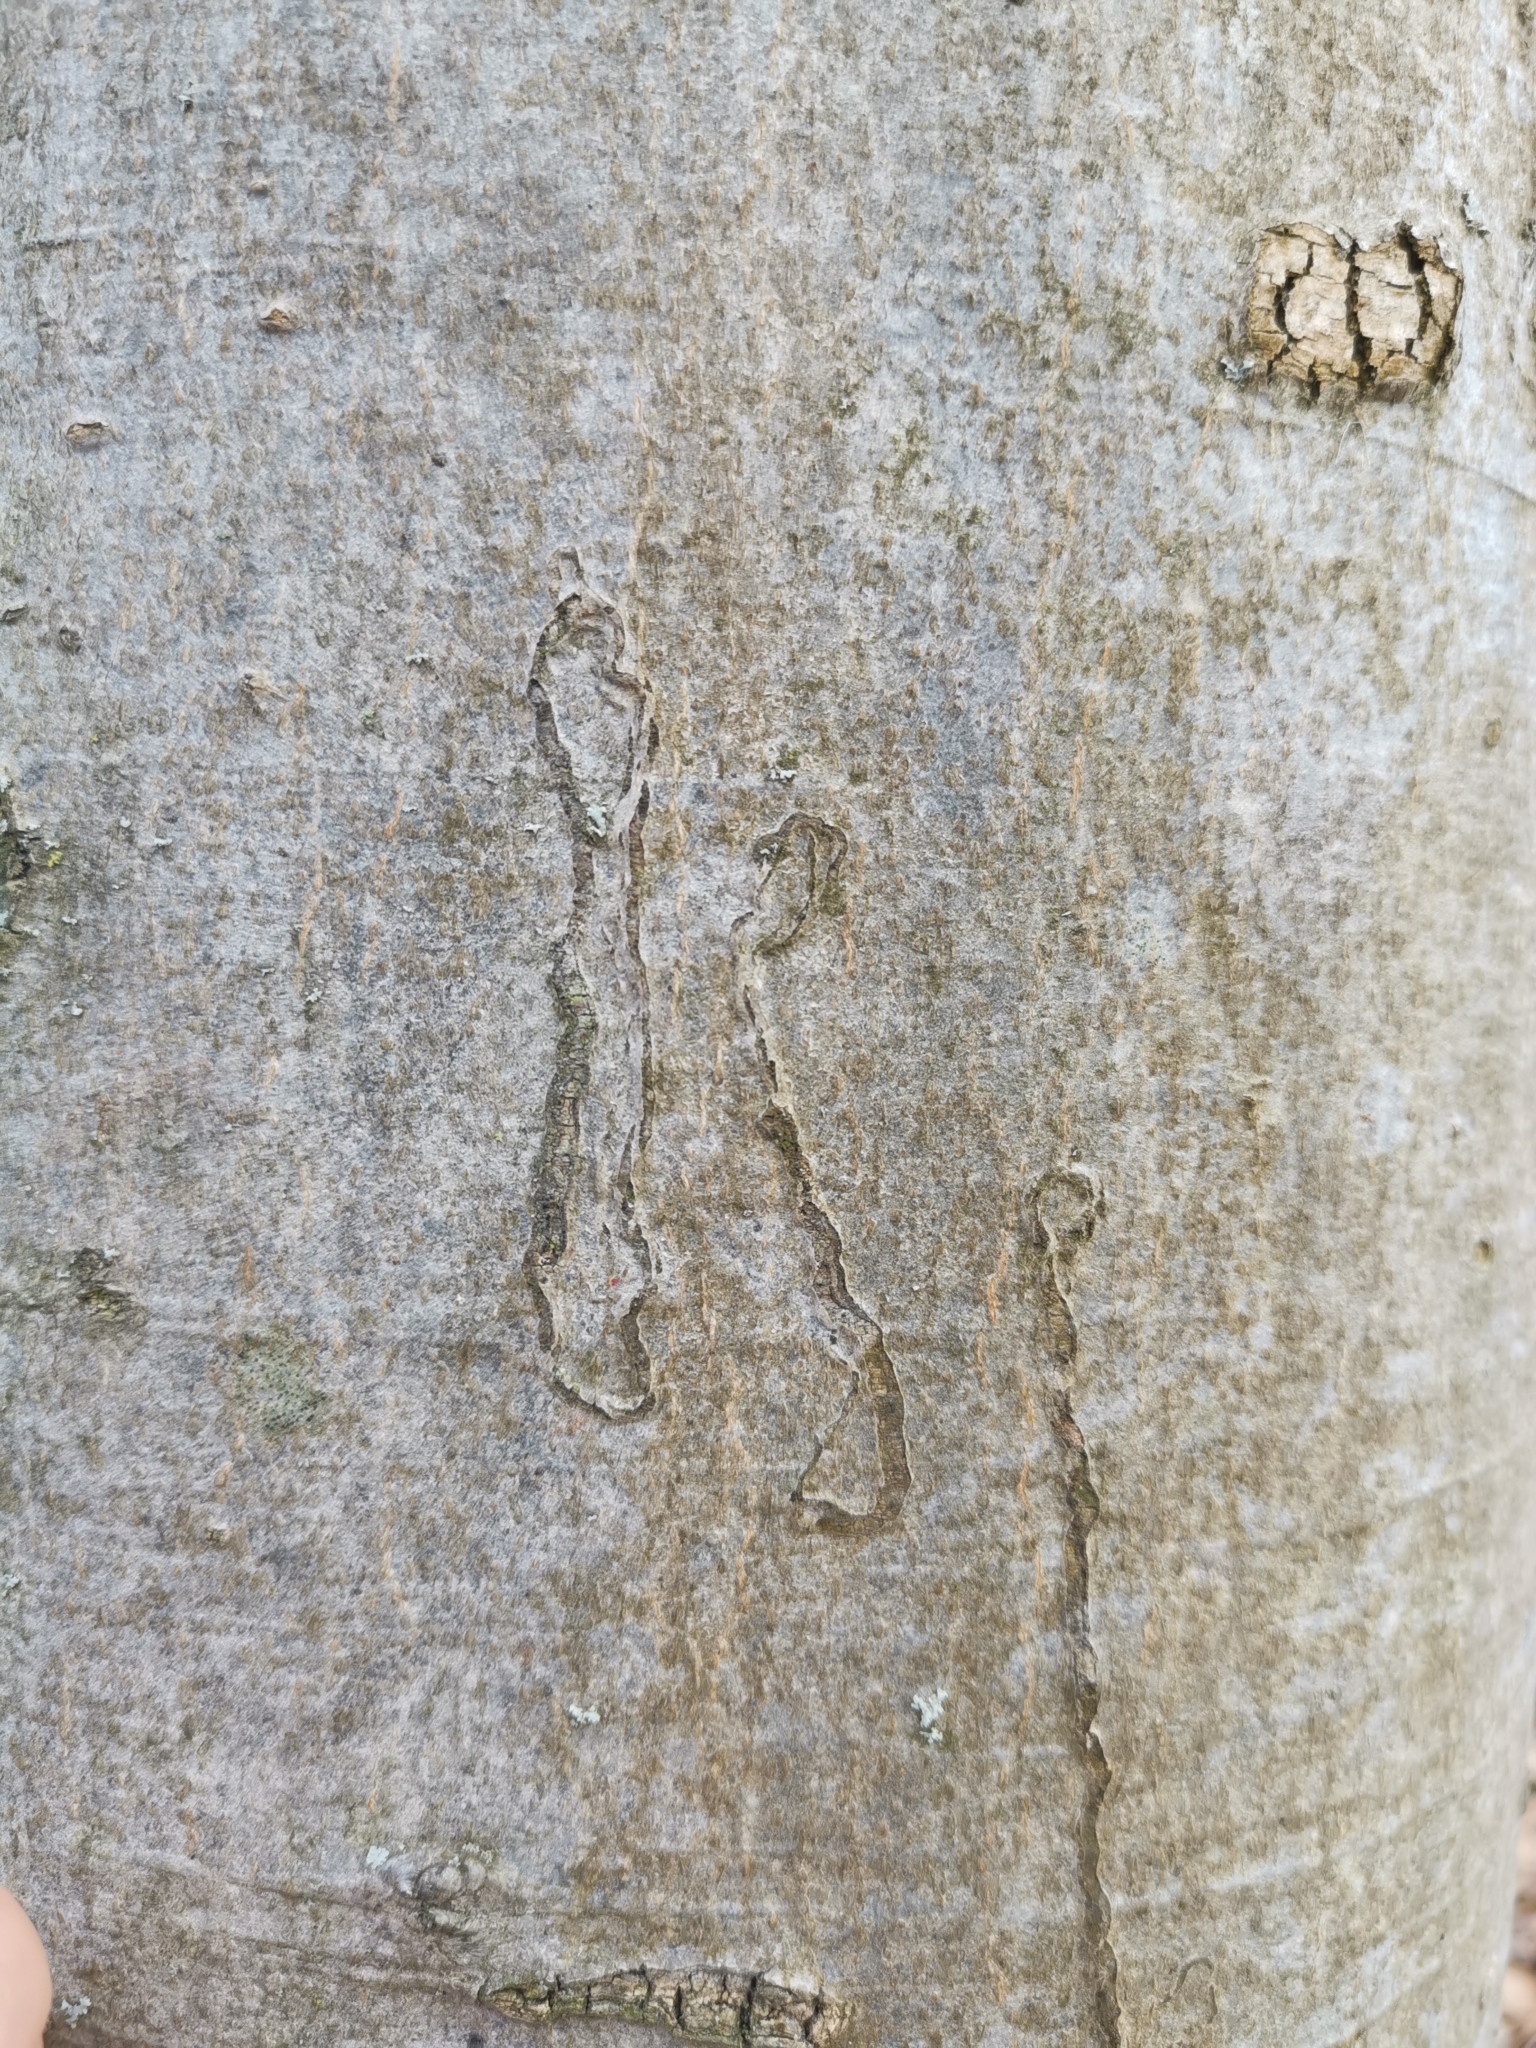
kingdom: Animalia
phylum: Arthropoda
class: Insecta
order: Lepidoptera
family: Nepticulidae
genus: Zimmermannia
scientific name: Zimmermannia liebwerdella
